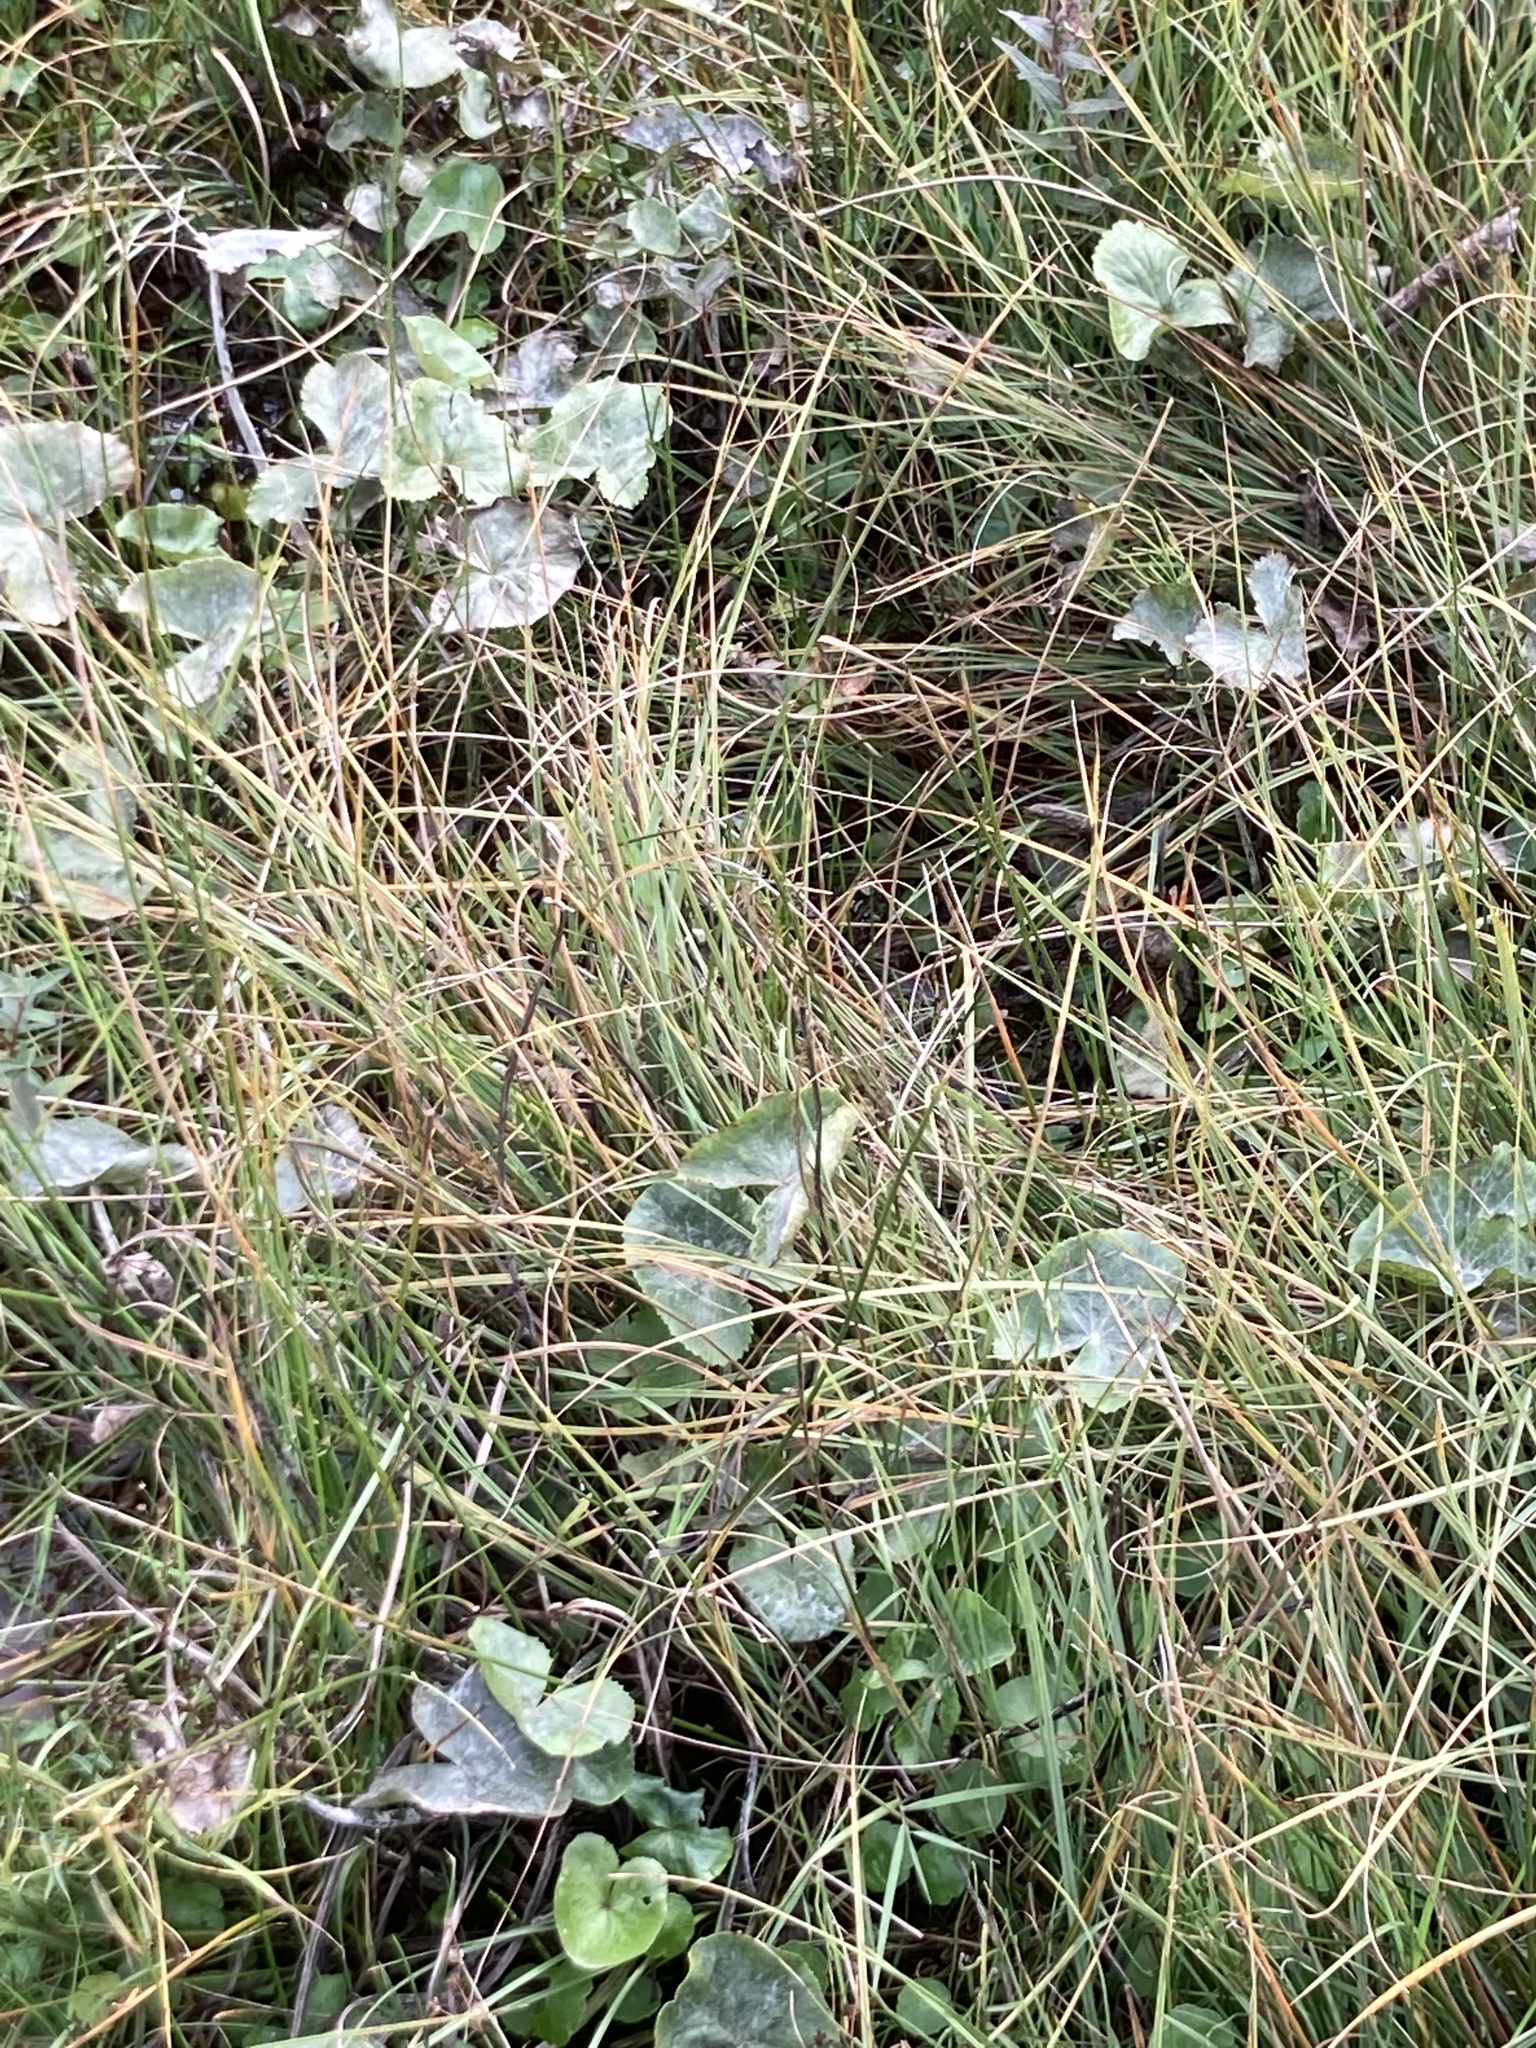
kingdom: Plantae
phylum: Tracheophyta
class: Magnoliopsida
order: Ranunculales
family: Ranunculaceae
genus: Caltha
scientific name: Caltha palustris
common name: Marsh marigold
